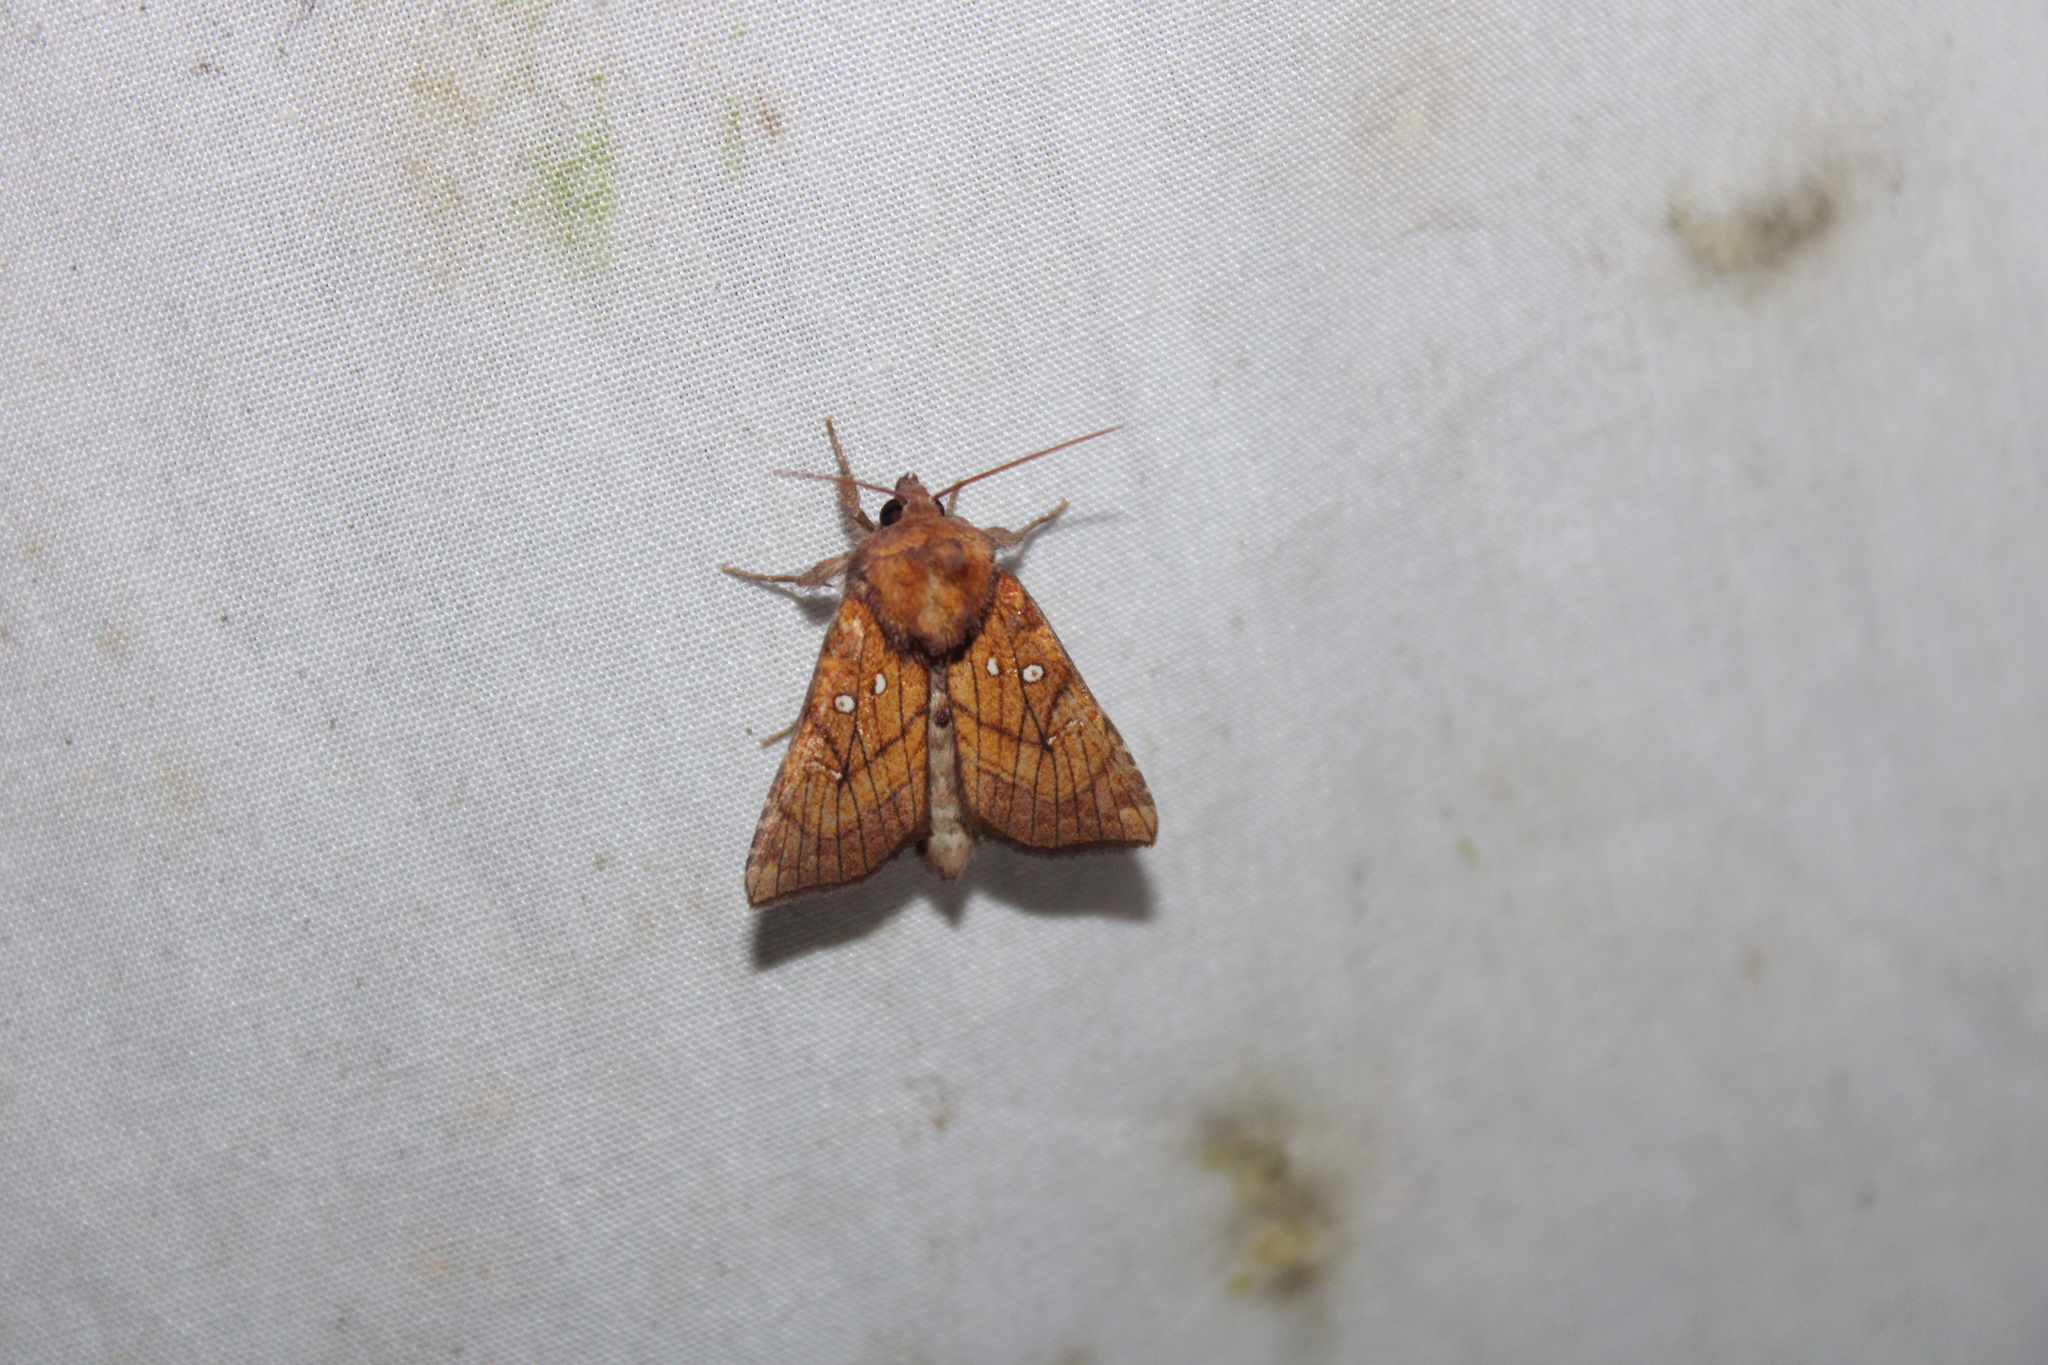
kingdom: Animalia
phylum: Arthropoda
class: Insecta
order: Lepidoptera
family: Noctuidae
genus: Papaipema
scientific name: Papaipema inquaesita
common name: Sensitive fern borer moth
